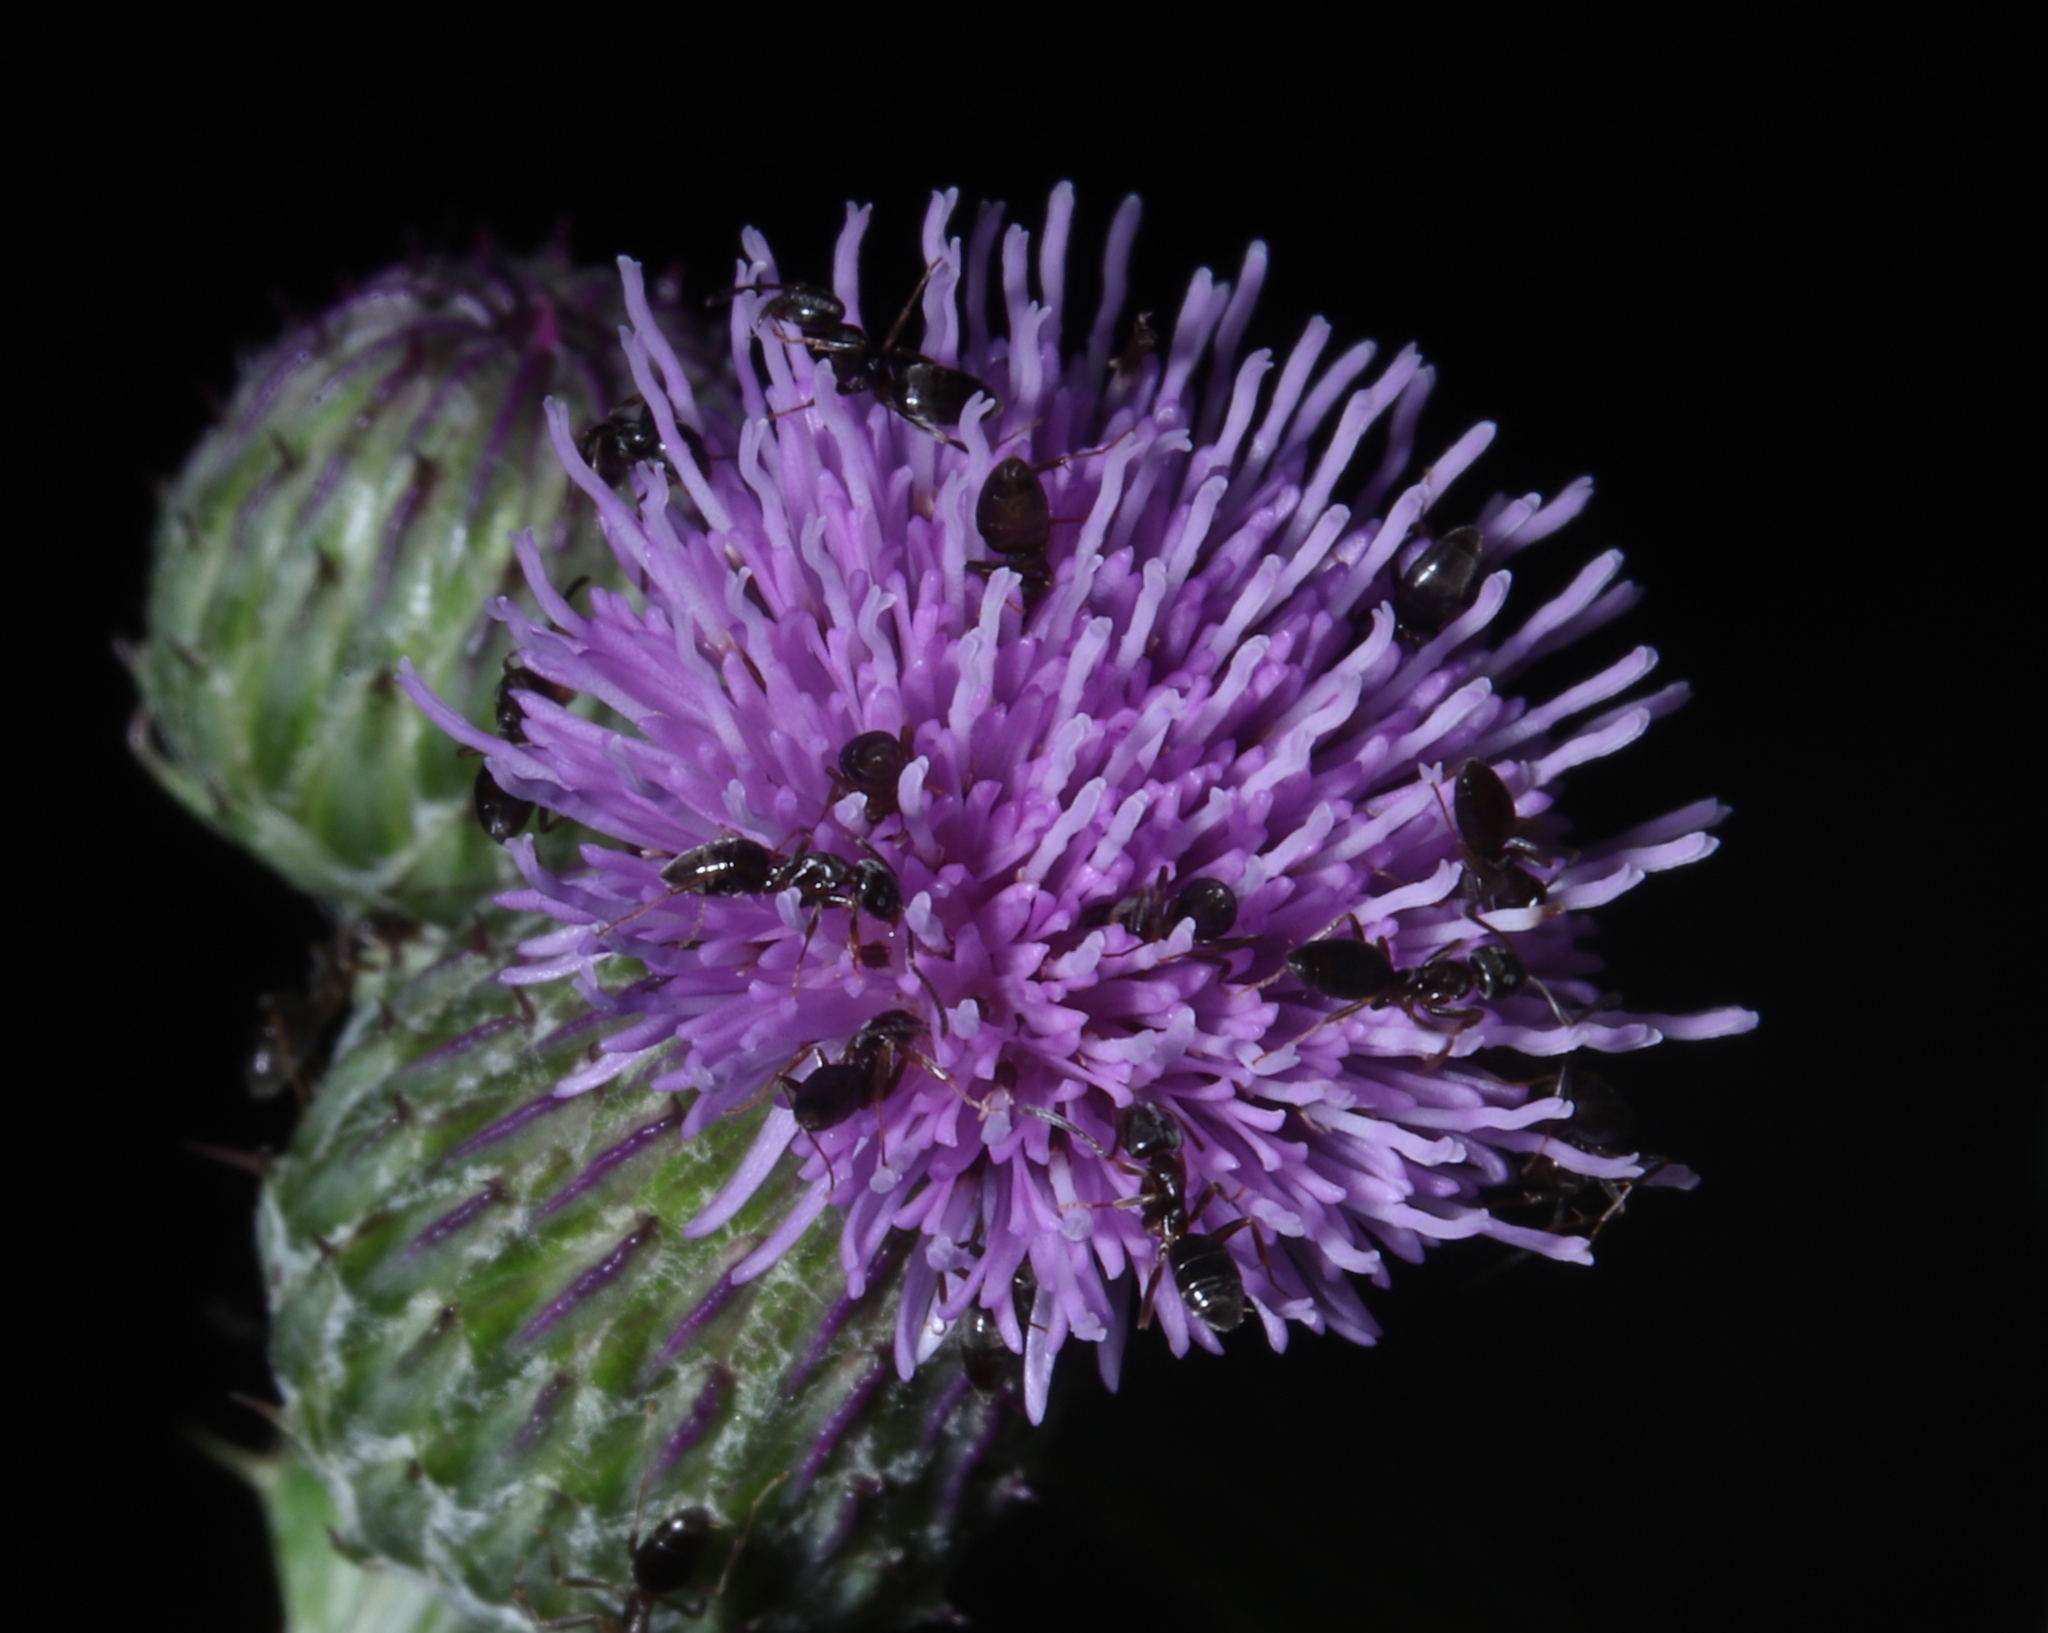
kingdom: Animalia
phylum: Arthropoda
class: Insecta
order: Hymenoptera
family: Formicidae
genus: Tapinoma
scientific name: Tapinoma sessile
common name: Odorous house ant
